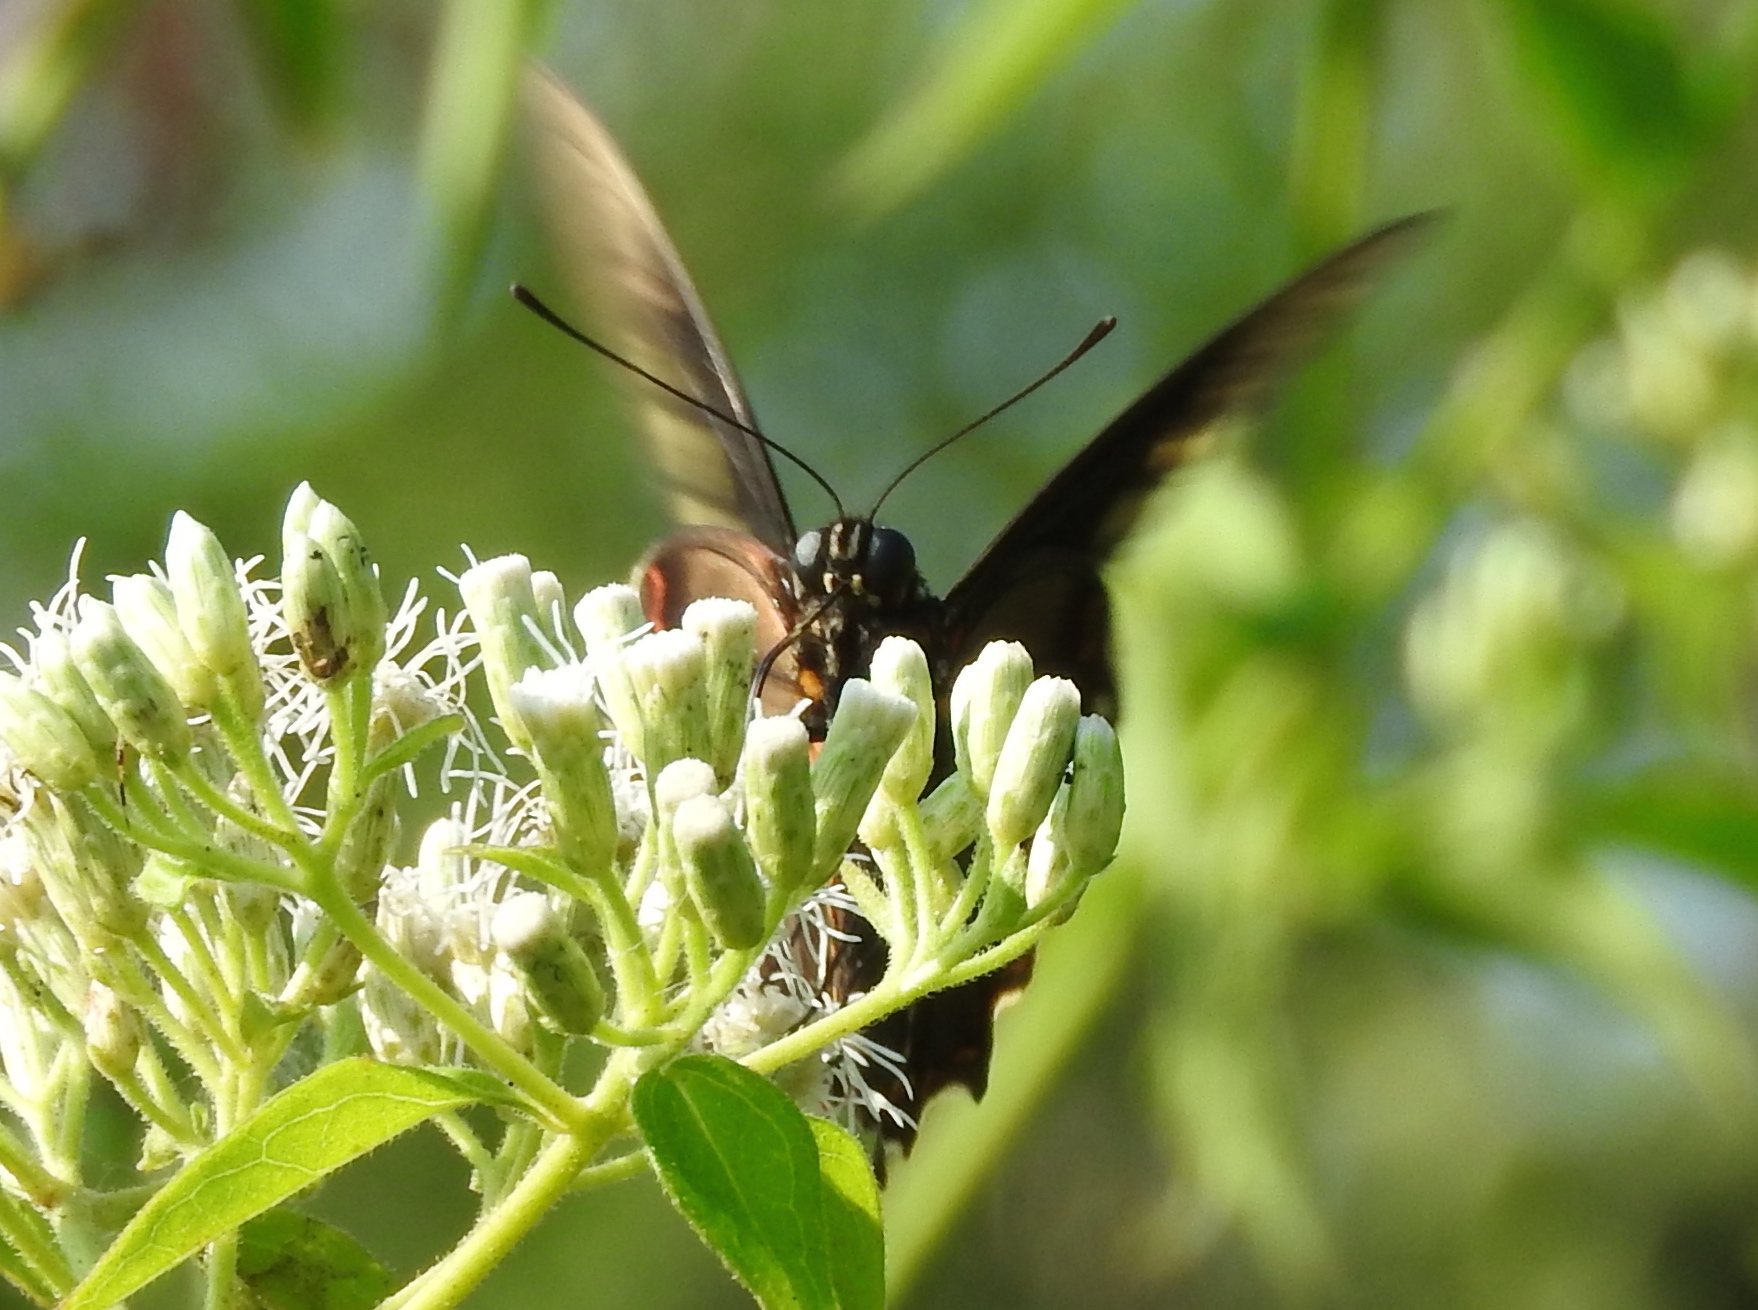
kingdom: Animalia
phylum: Arthropoda
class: Insecta
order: Lepidoptera
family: Papilionidae
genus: Battus
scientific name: Battus polydamas
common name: Polydamas swallowtail
